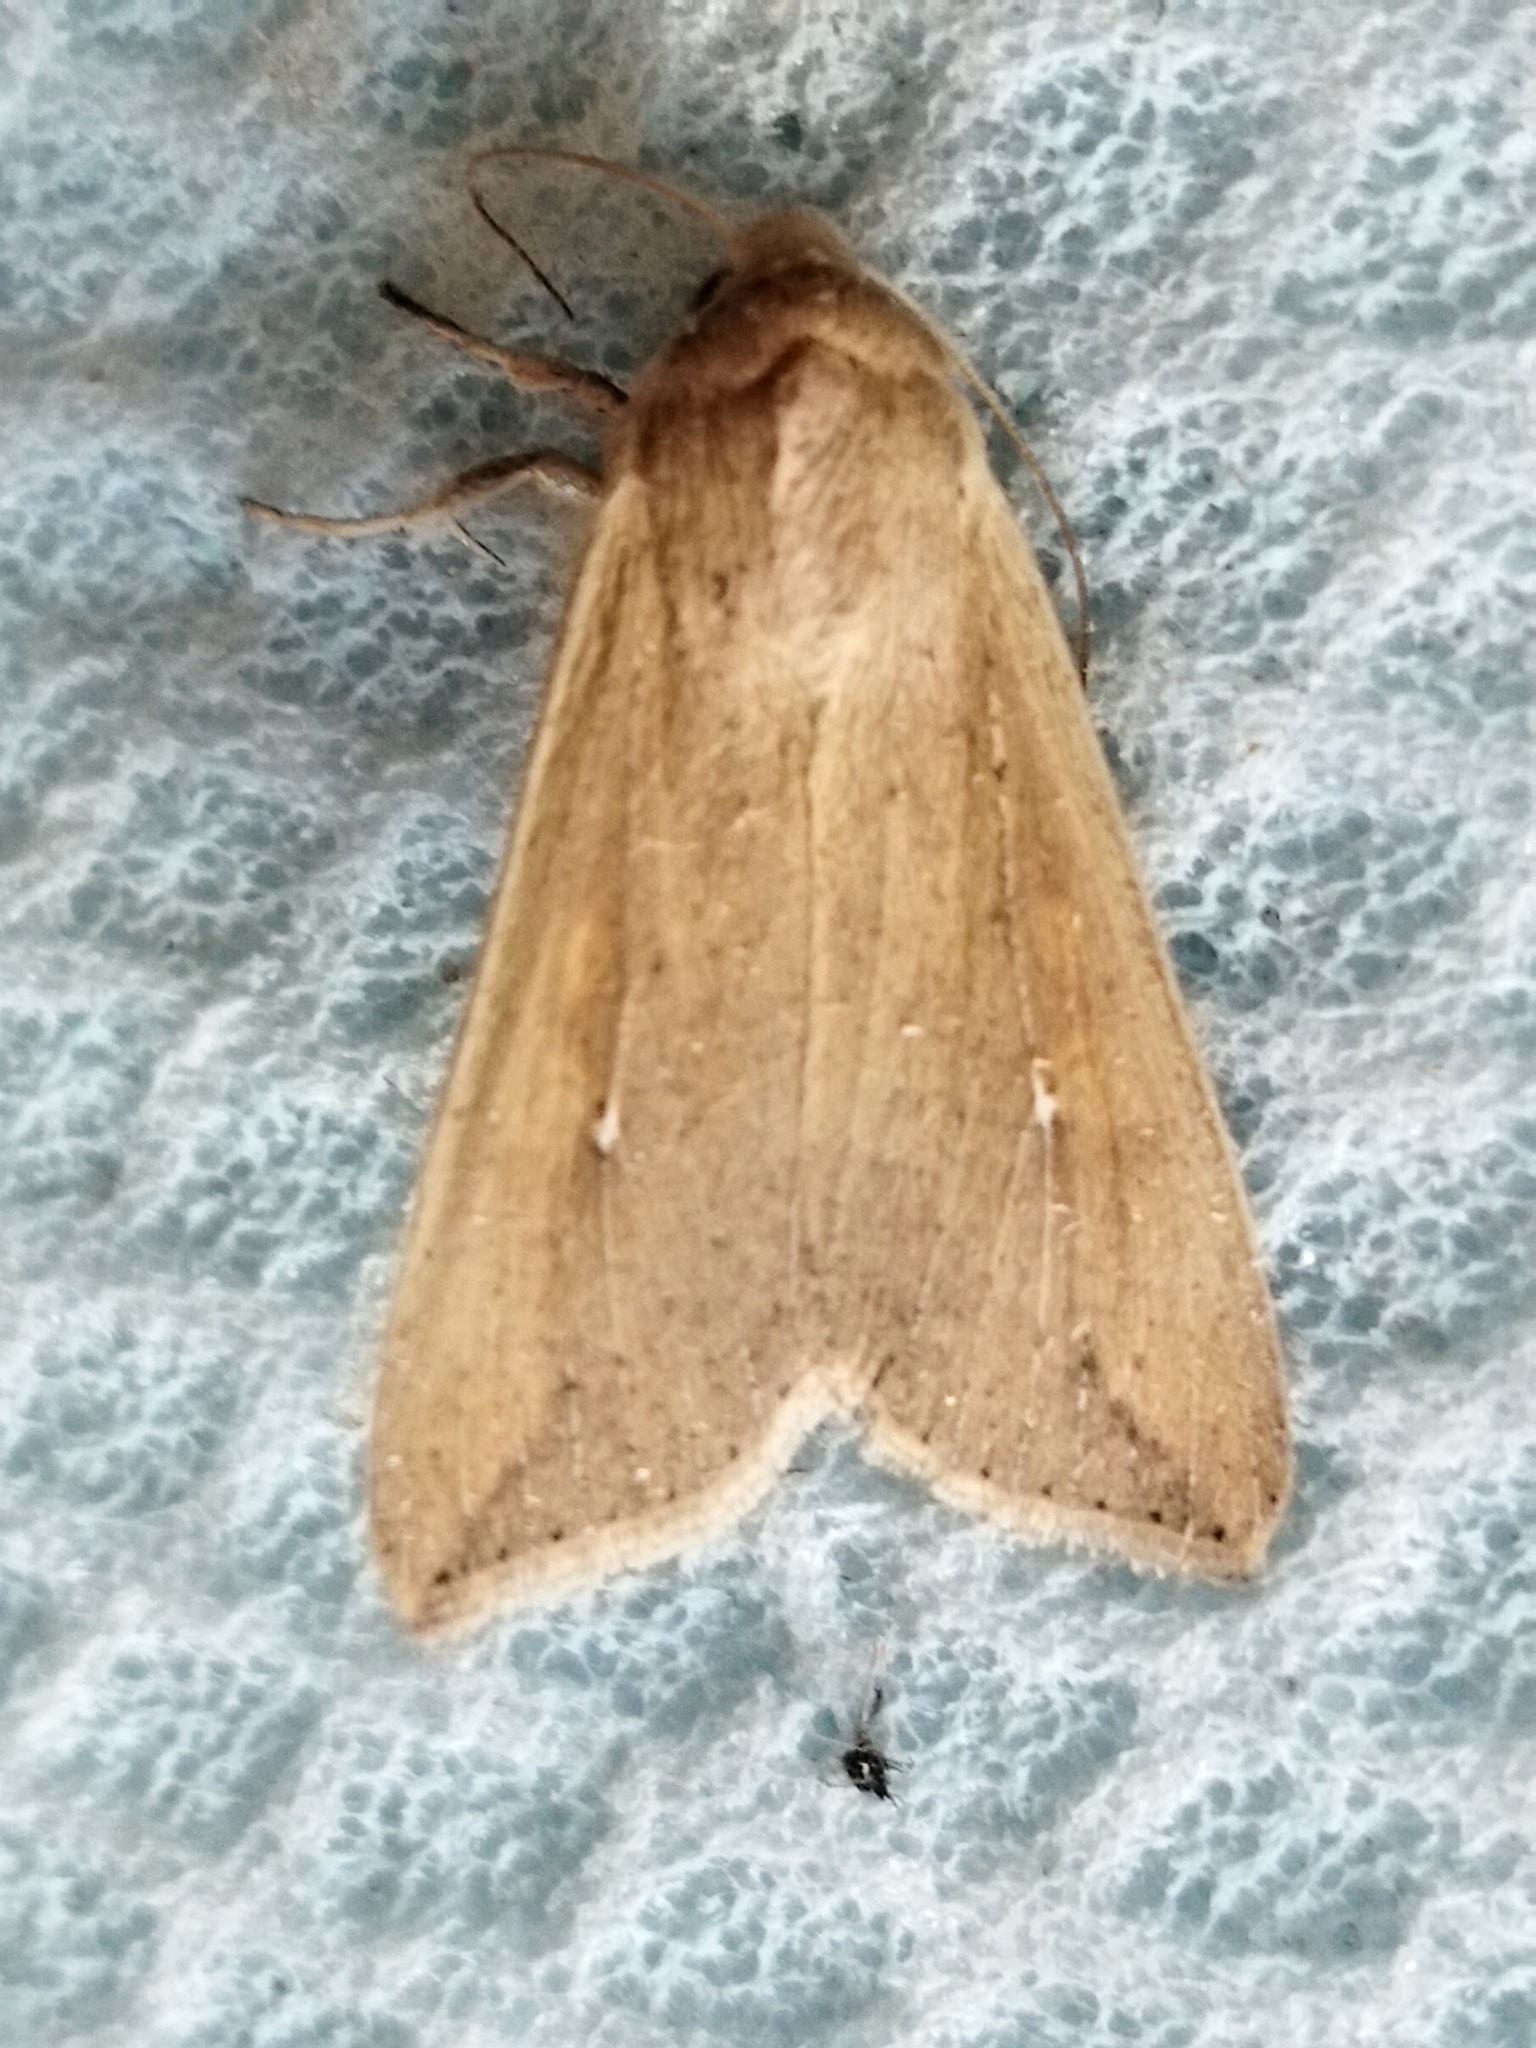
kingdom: Animalia
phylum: Arthropoda
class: Insecta
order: Lepidoptera
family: Noctuidae
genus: Mythimna
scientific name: Mythimna unipuncta
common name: White-speck
